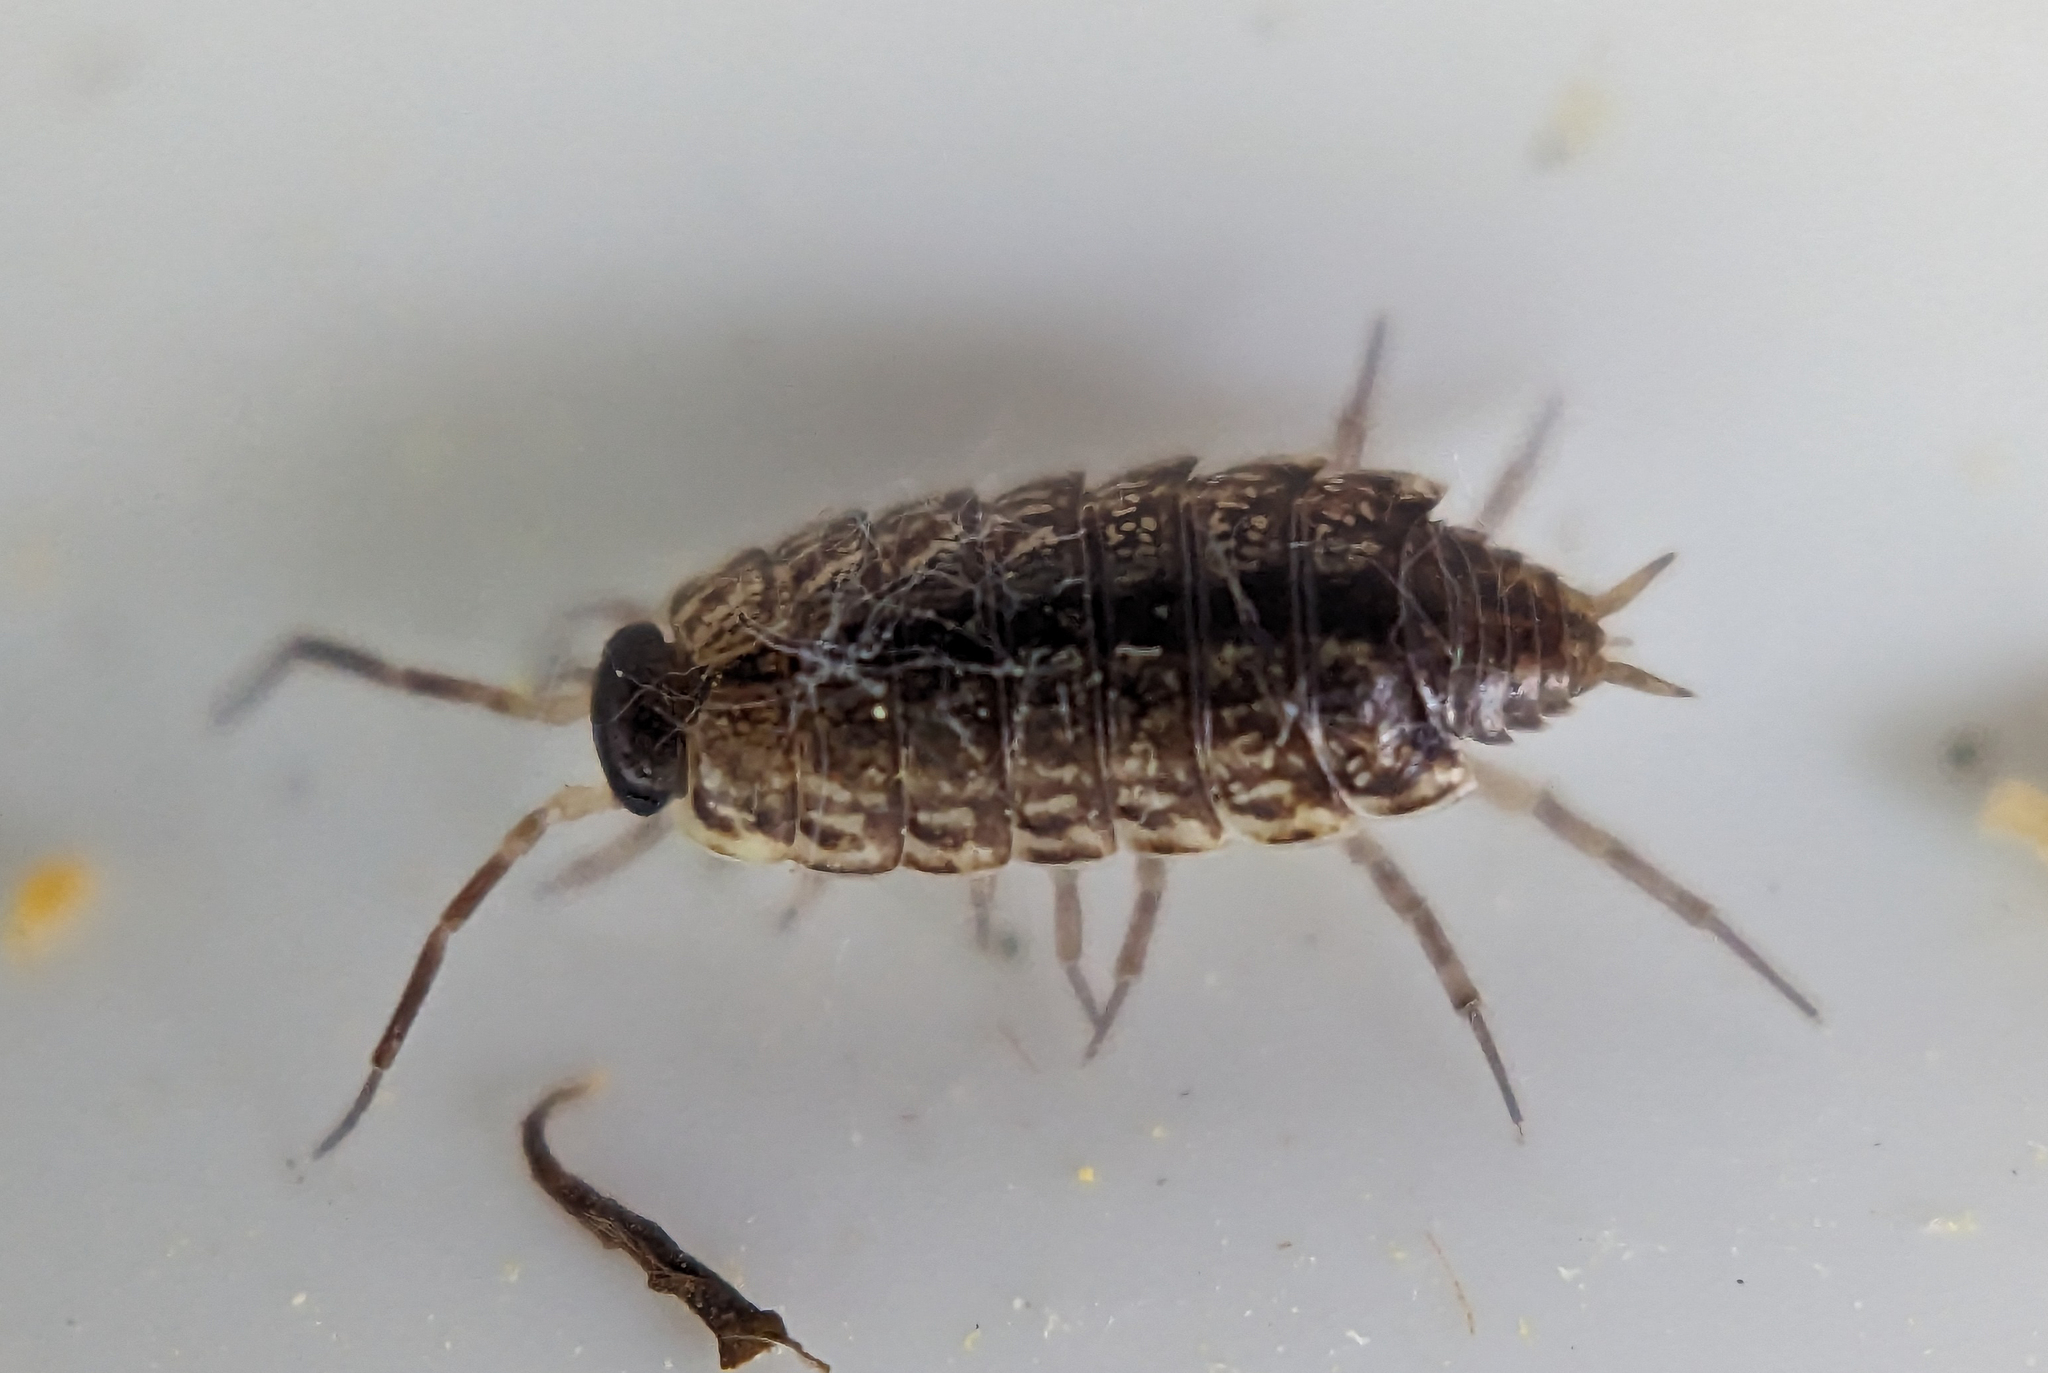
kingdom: Animalia
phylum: Arthropoda
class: Malacostraca
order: Isopoda
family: Philosciidae
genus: Philoscia
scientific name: Philoscia muscorum
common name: Common striped woodlouse
